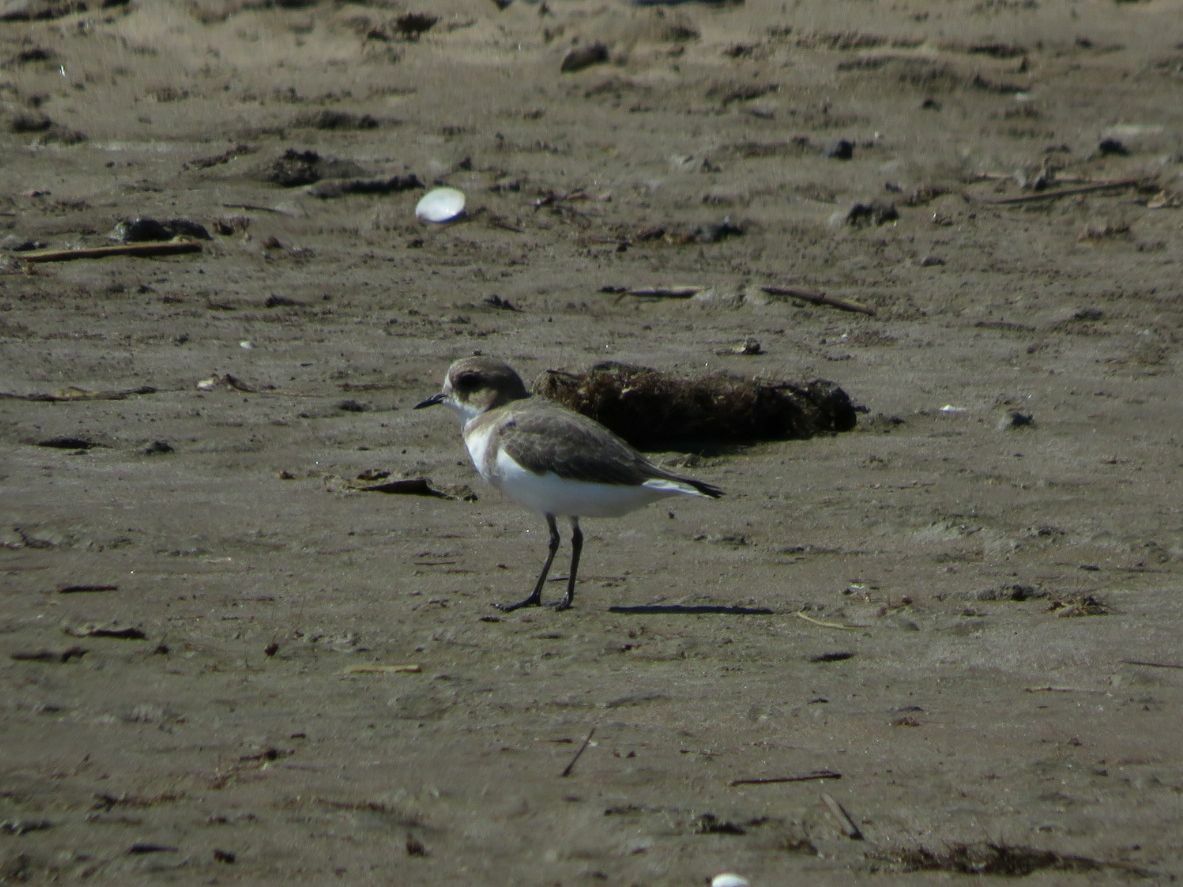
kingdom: Animalia
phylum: Chordata
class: Aves
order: Charadriiformes
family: Charadriidae
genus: Anarhynchus
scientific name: Anarhynchus
